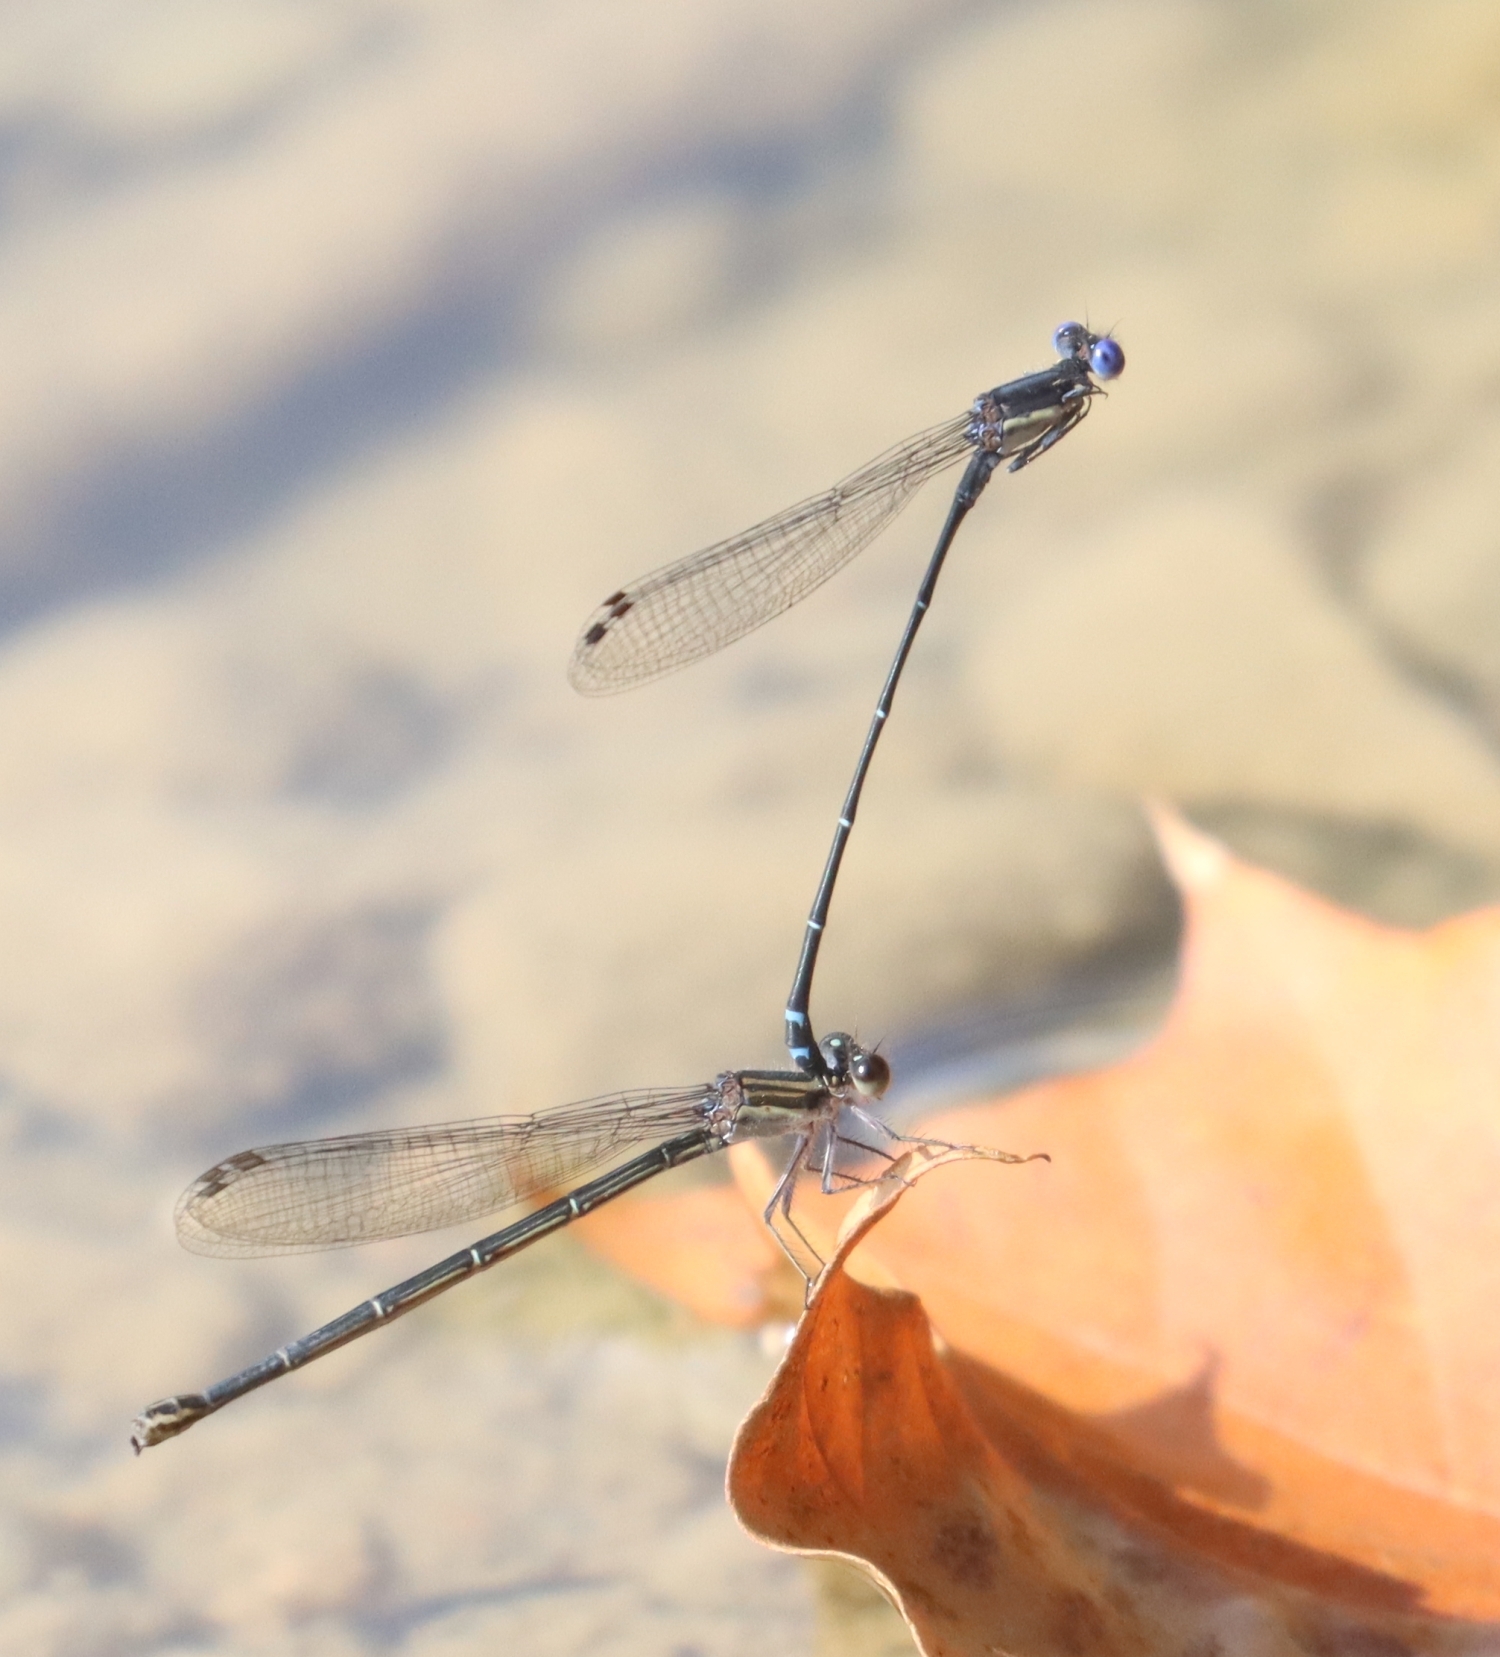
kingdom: Animalia
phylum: Arthropoda
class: Insecta
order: Odonata
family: Coenagrionidae
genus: Argia
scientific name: Argia translata
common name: Dusky dancer
